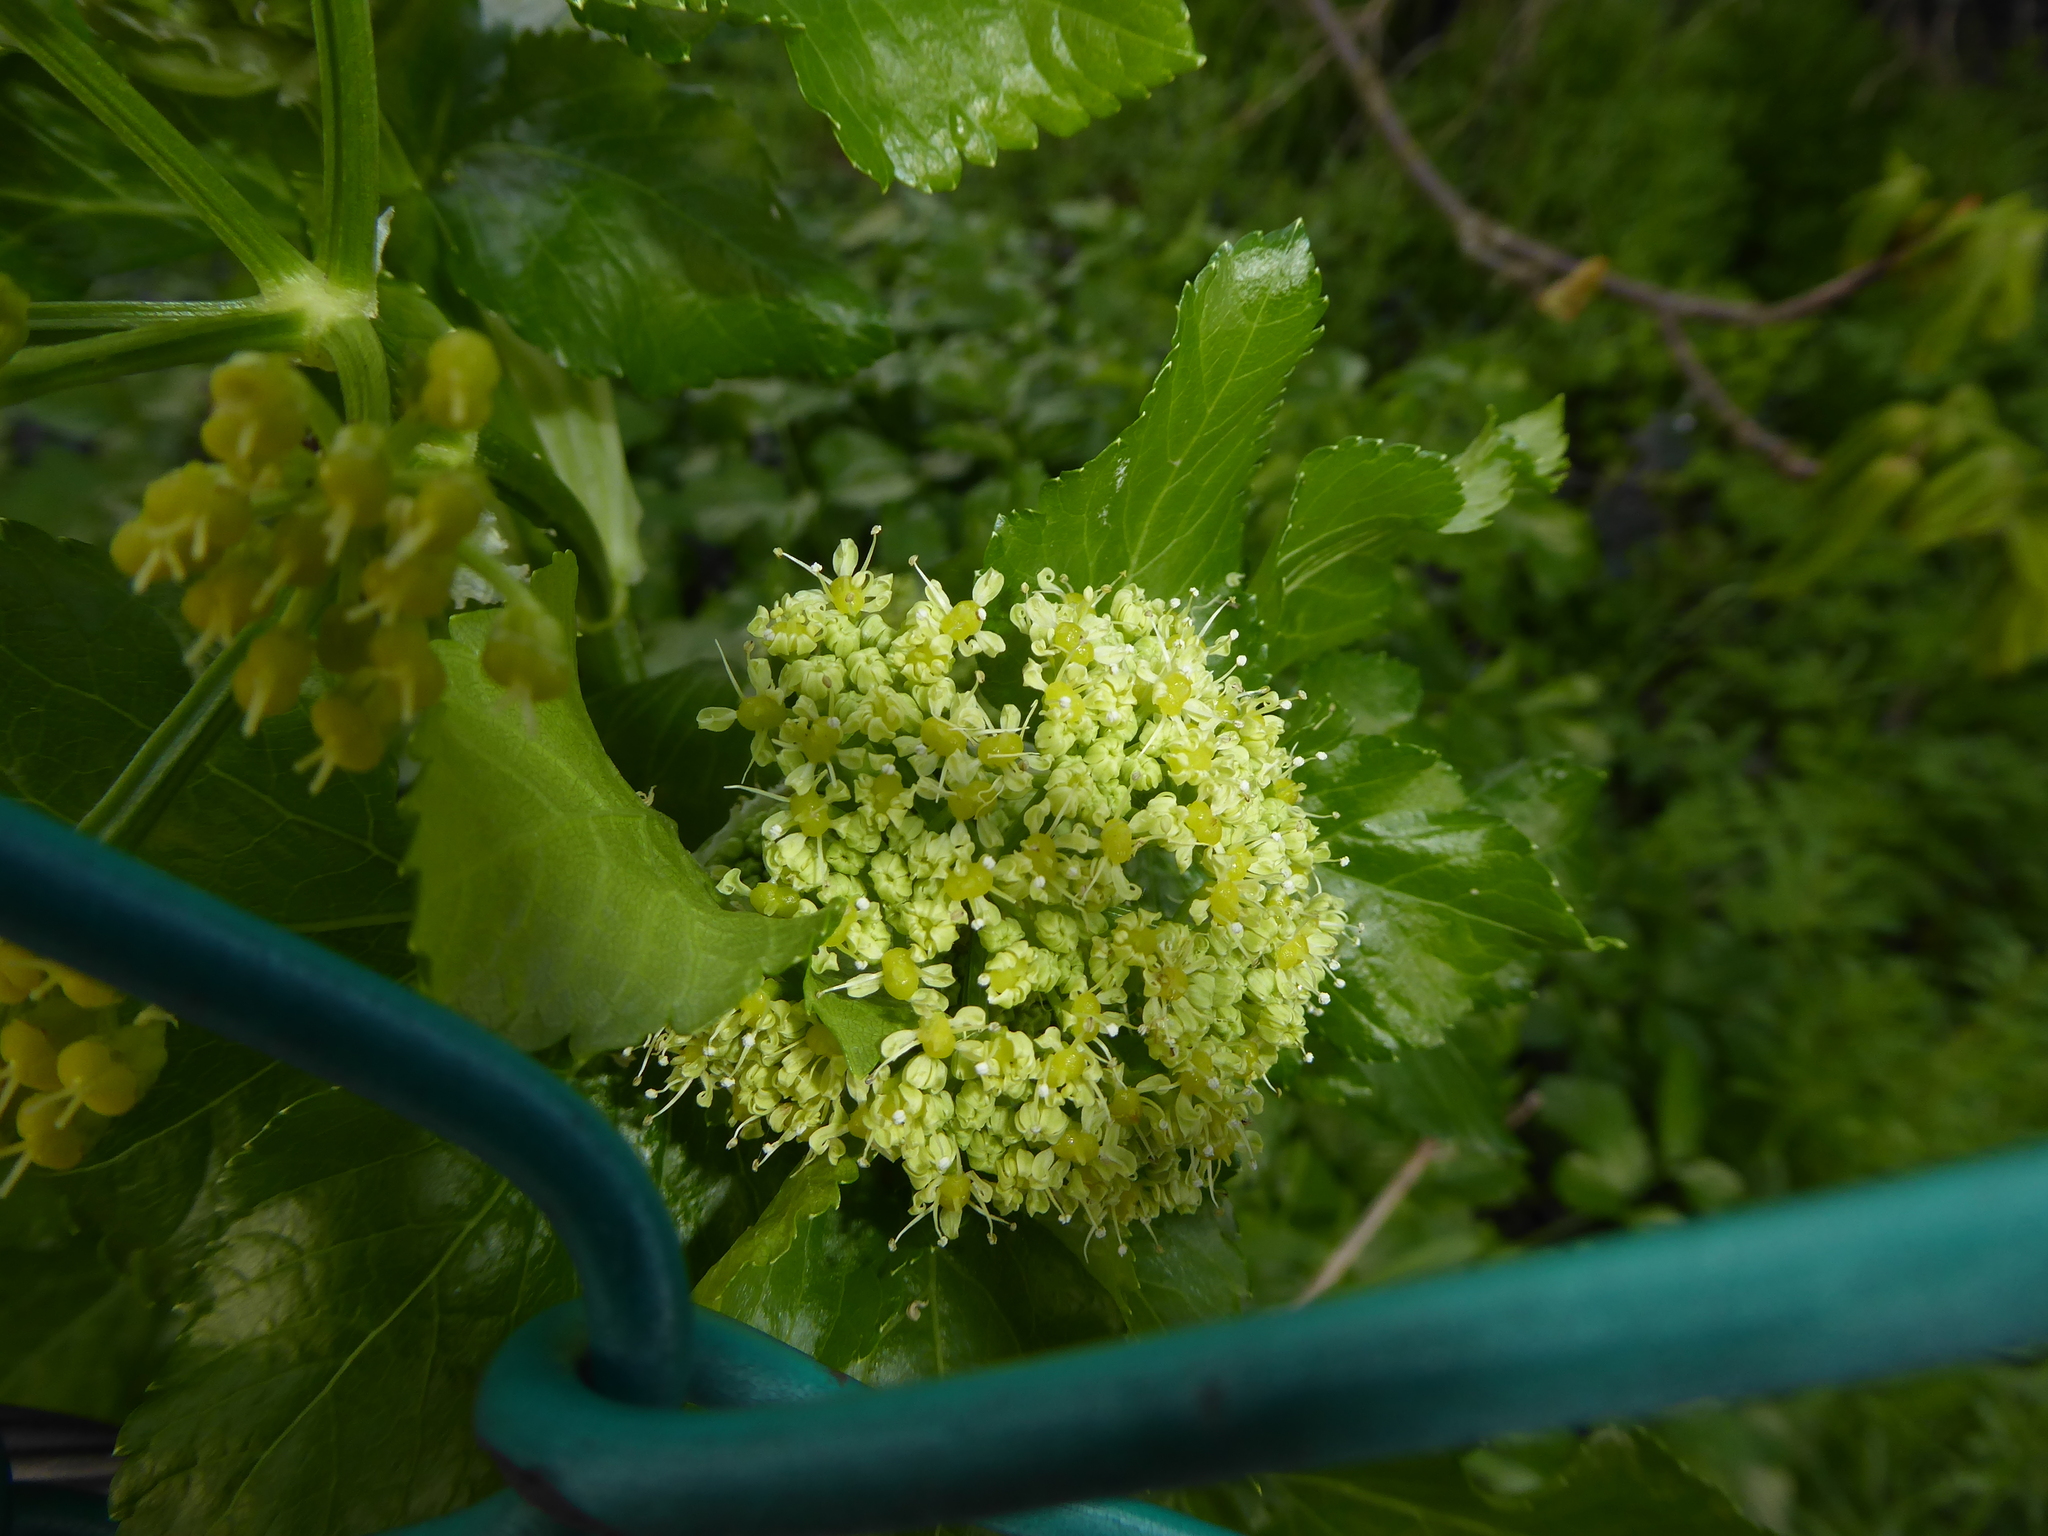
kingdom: Plantae
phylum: Tracheophyta
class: Magnoliopsida
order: Apiales
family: Apiaceae
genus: Smyrnium
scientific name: Smyrnium olusatrum
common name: Alexanders
